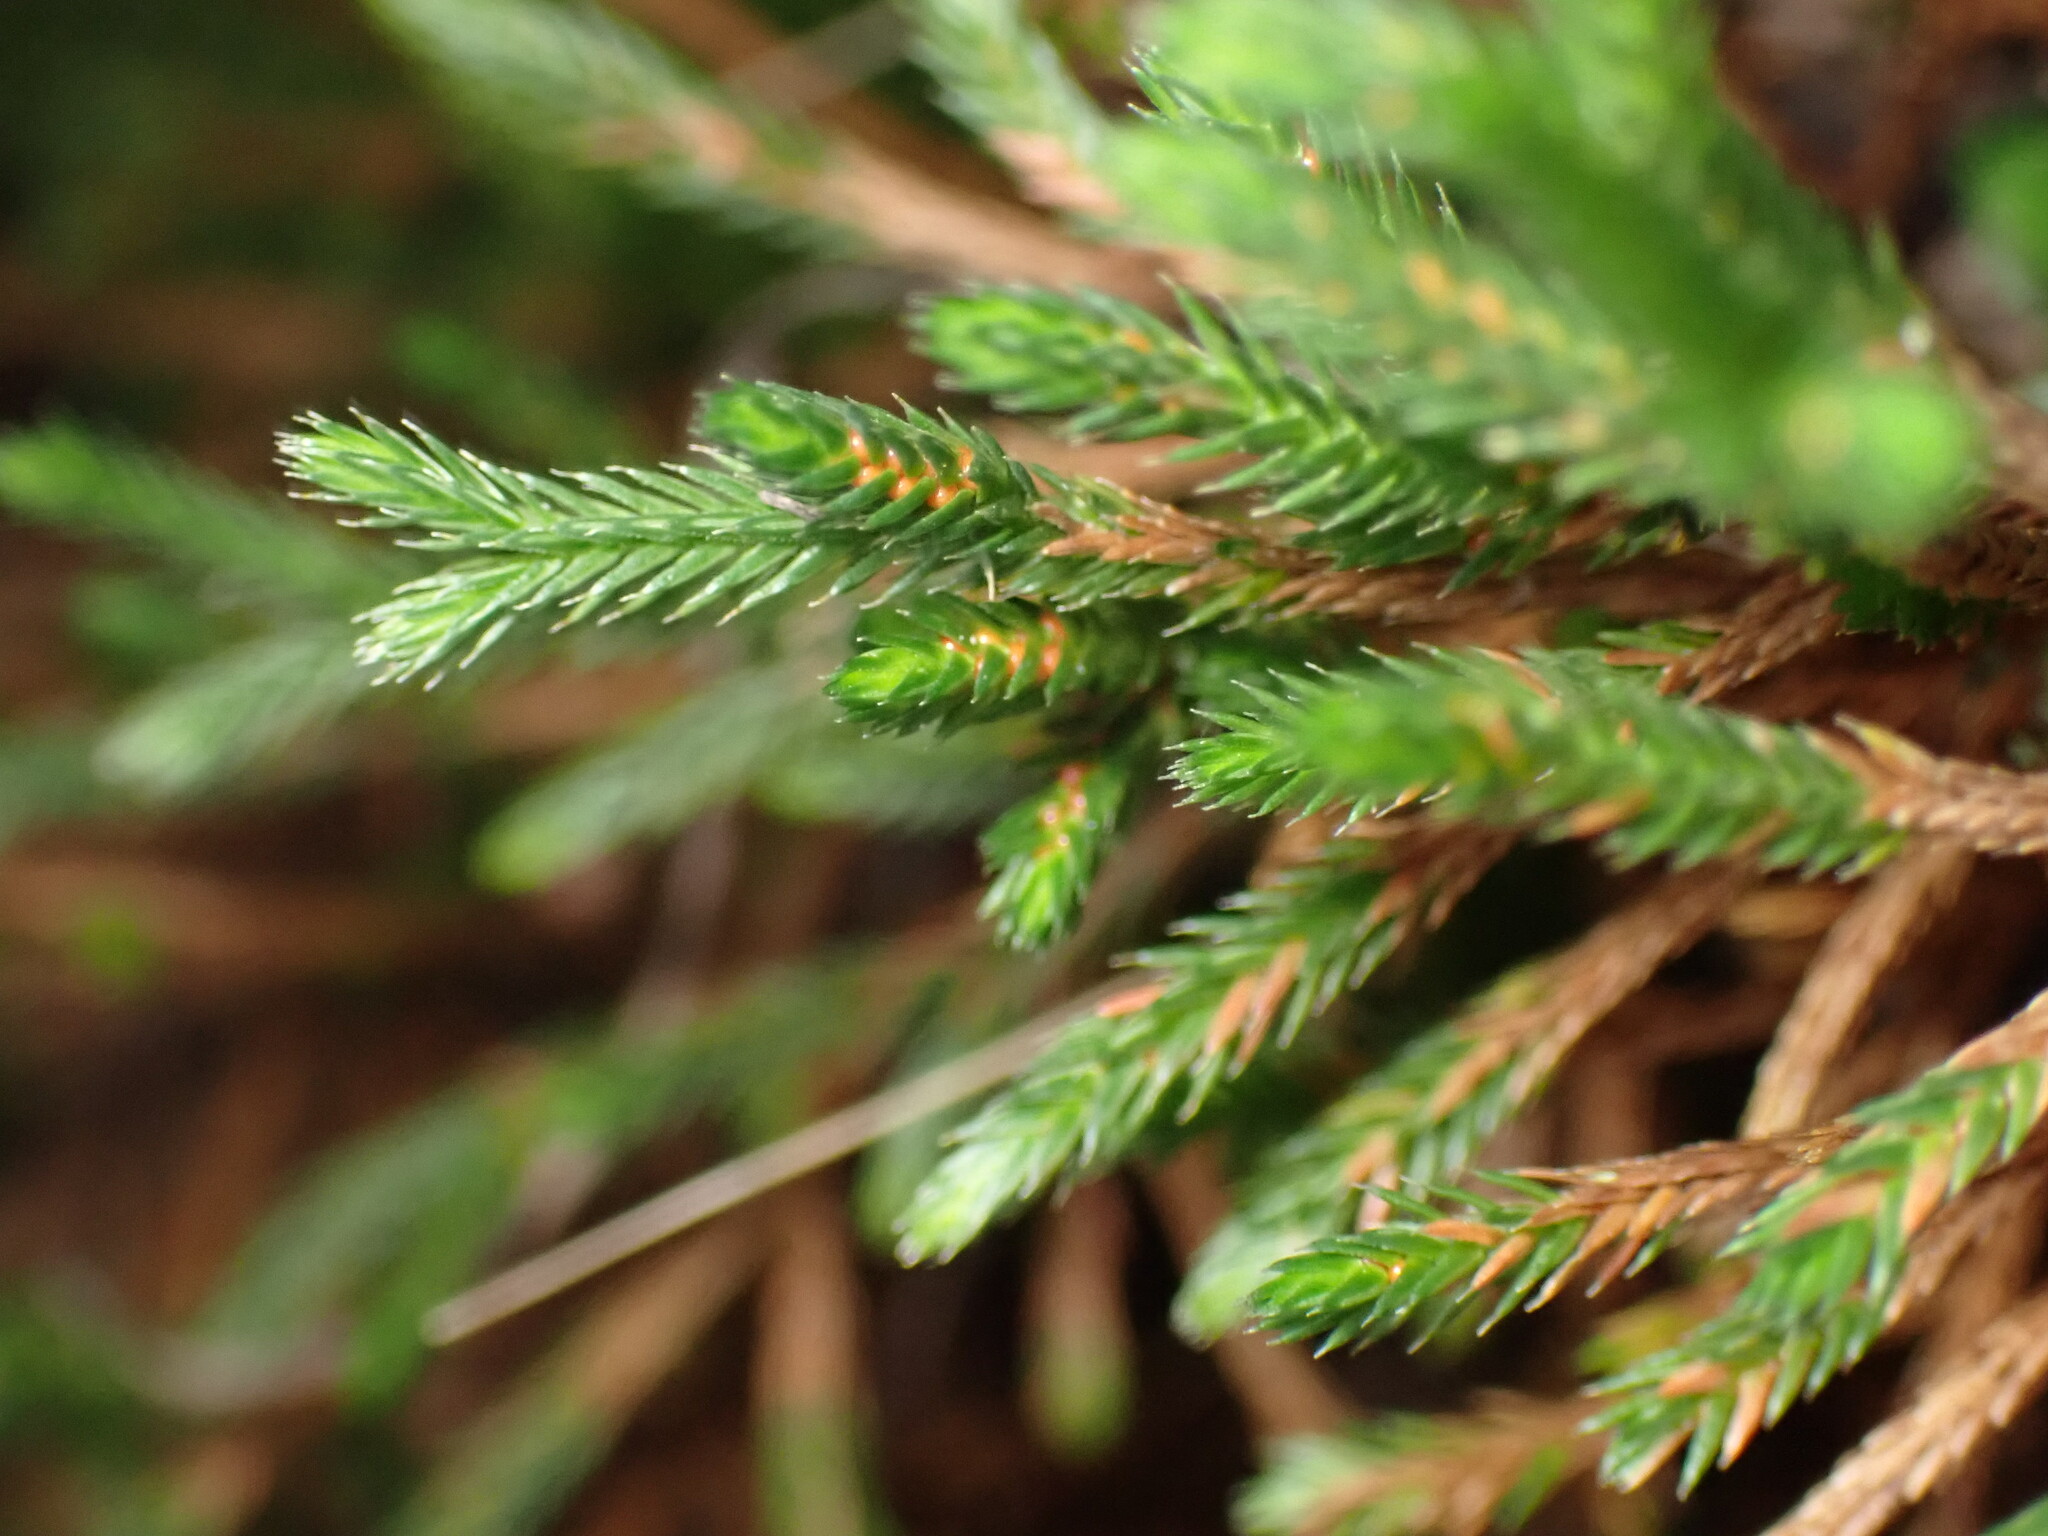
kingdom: Plantae
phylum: Tracheophyta
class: Lycopodiopsida
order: Selaginellales
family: Selaginellaceae
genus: Selaginella
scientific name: Selaginella bigelovii
